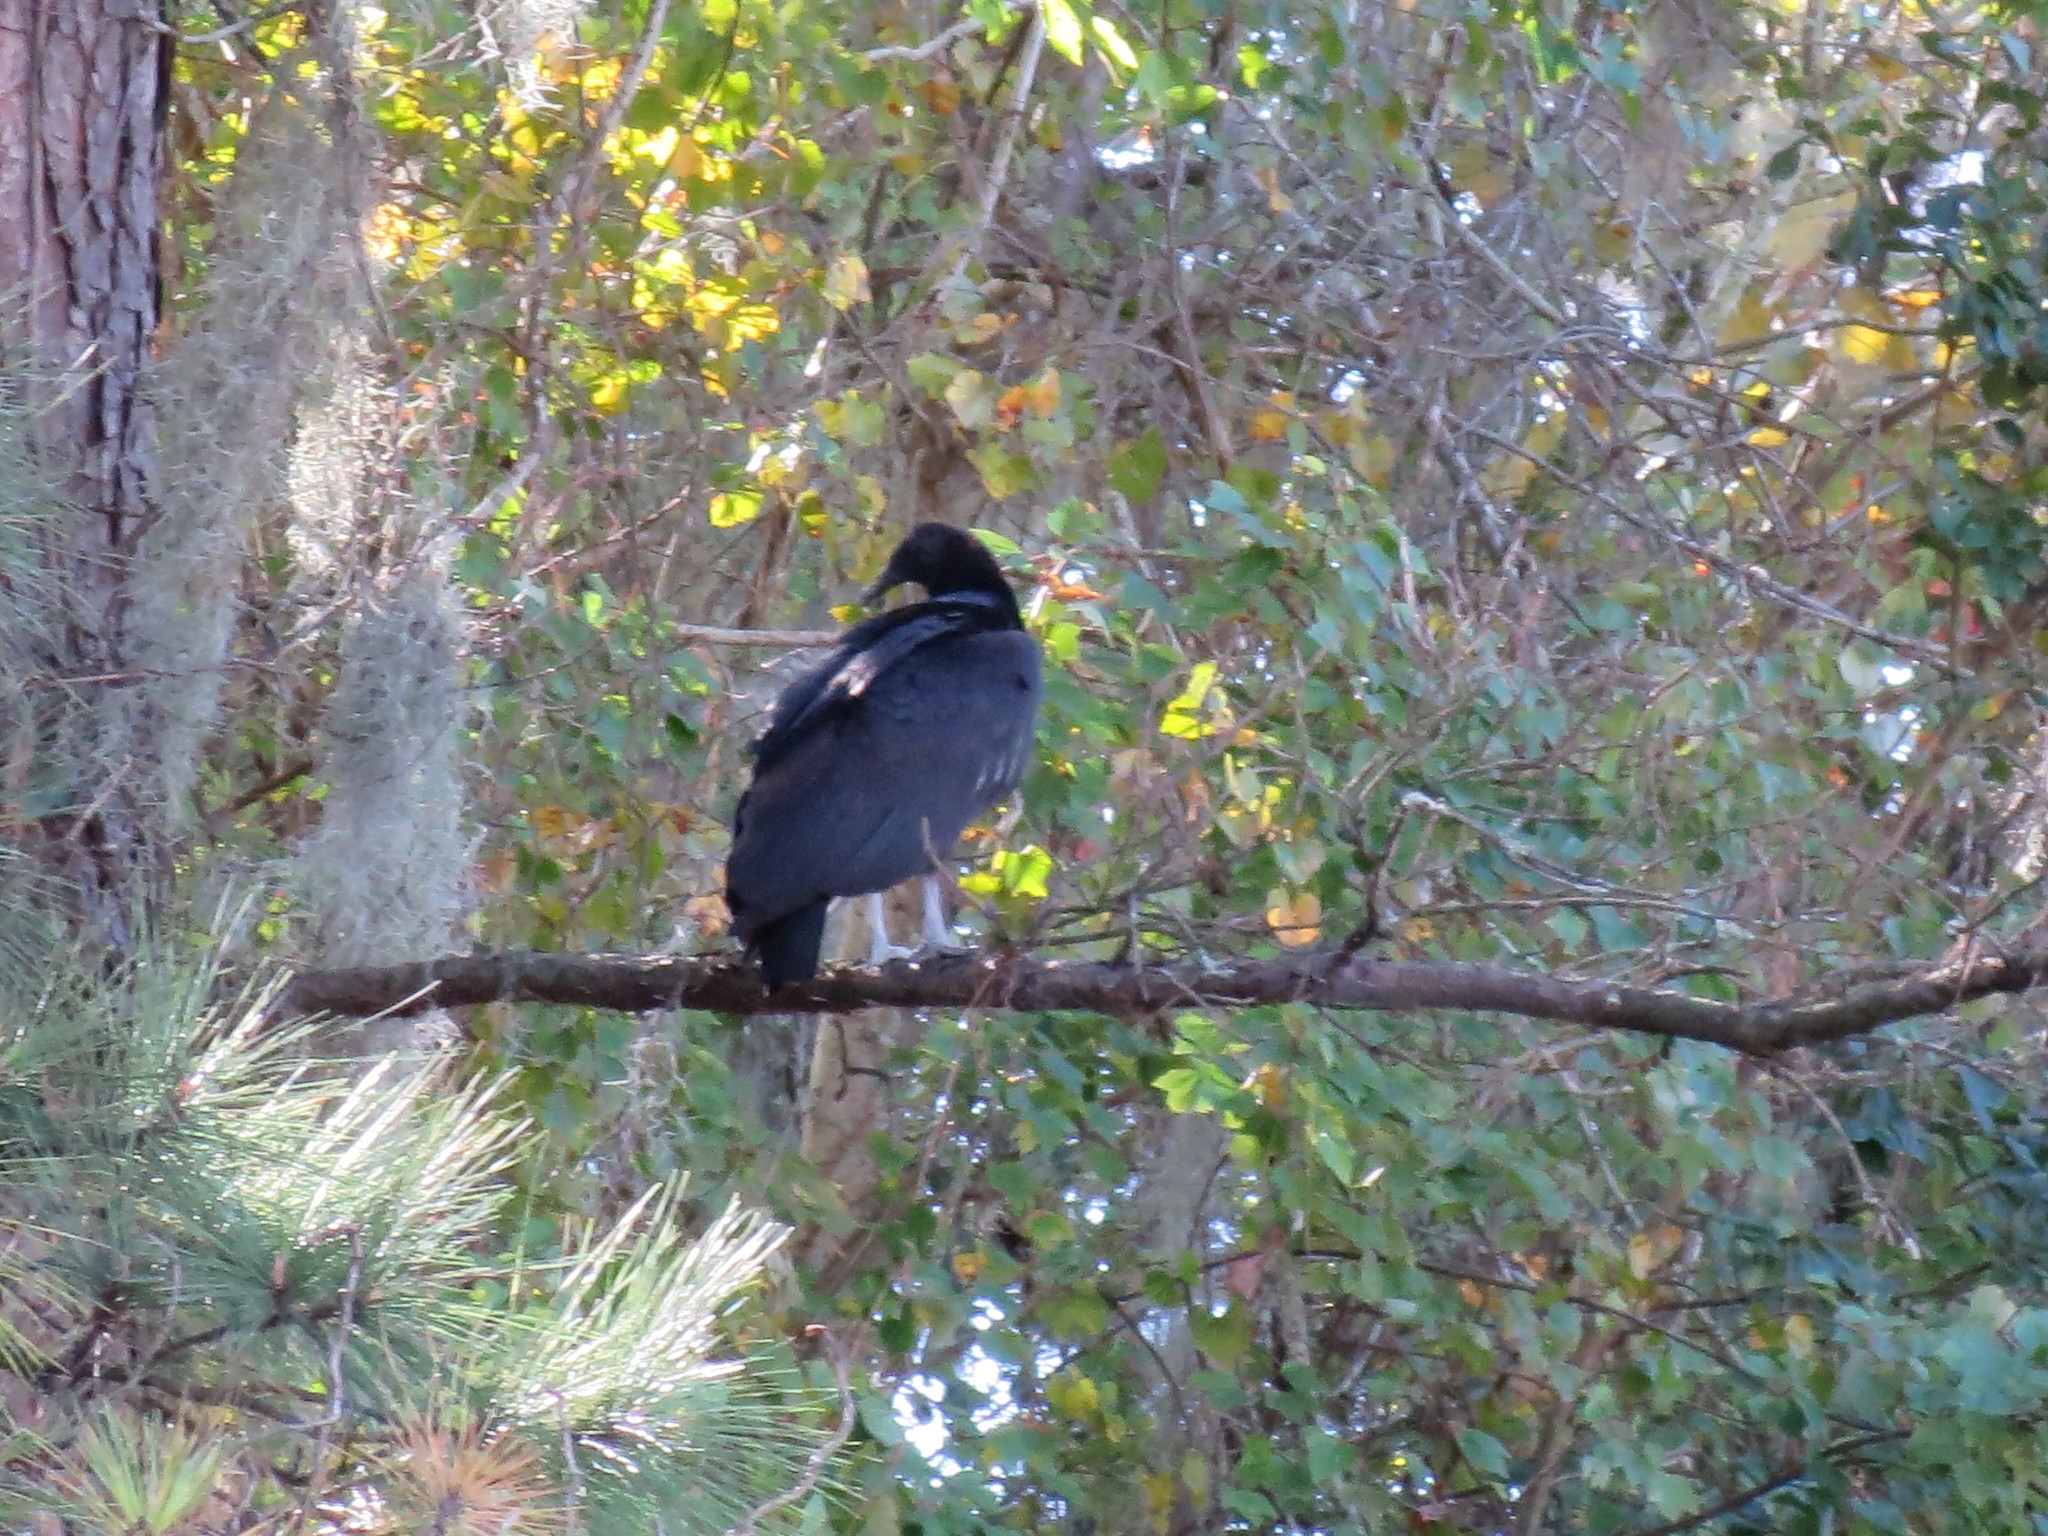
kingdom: Animalia
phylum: Chordata
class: Aves
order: Accipitriformes
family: Cathartidae
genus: Coragyps
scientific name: Coragyps atratus
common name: Black vulture
